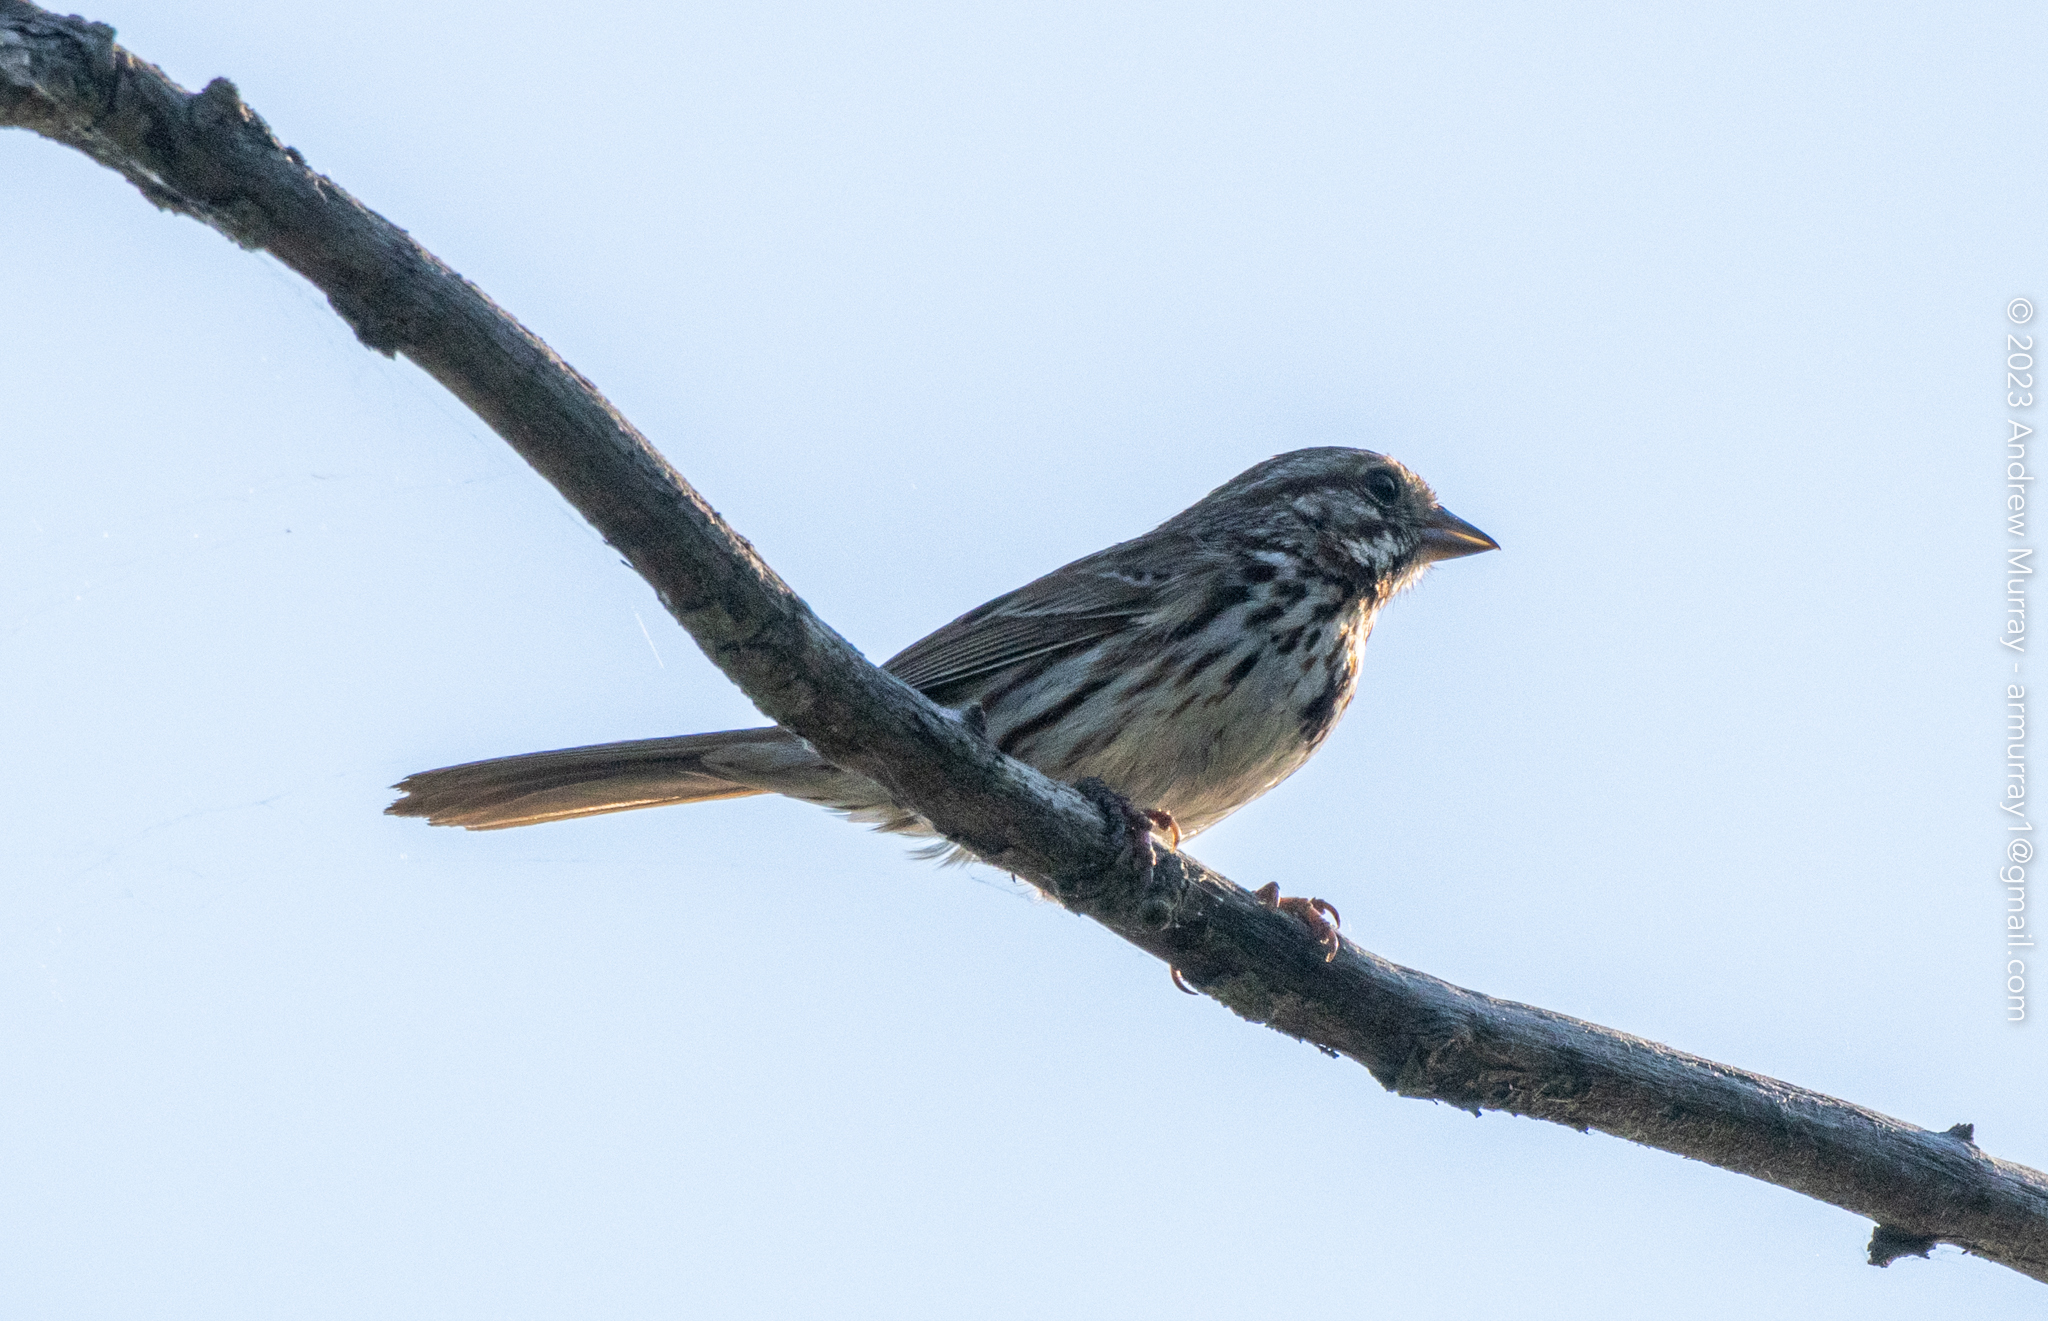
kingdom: Animalia
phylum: Chordata
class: Aves
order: Passeriformes
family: Passerellidae
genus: Melospiza
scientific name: Melospiza melodia
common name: Song sparrow
